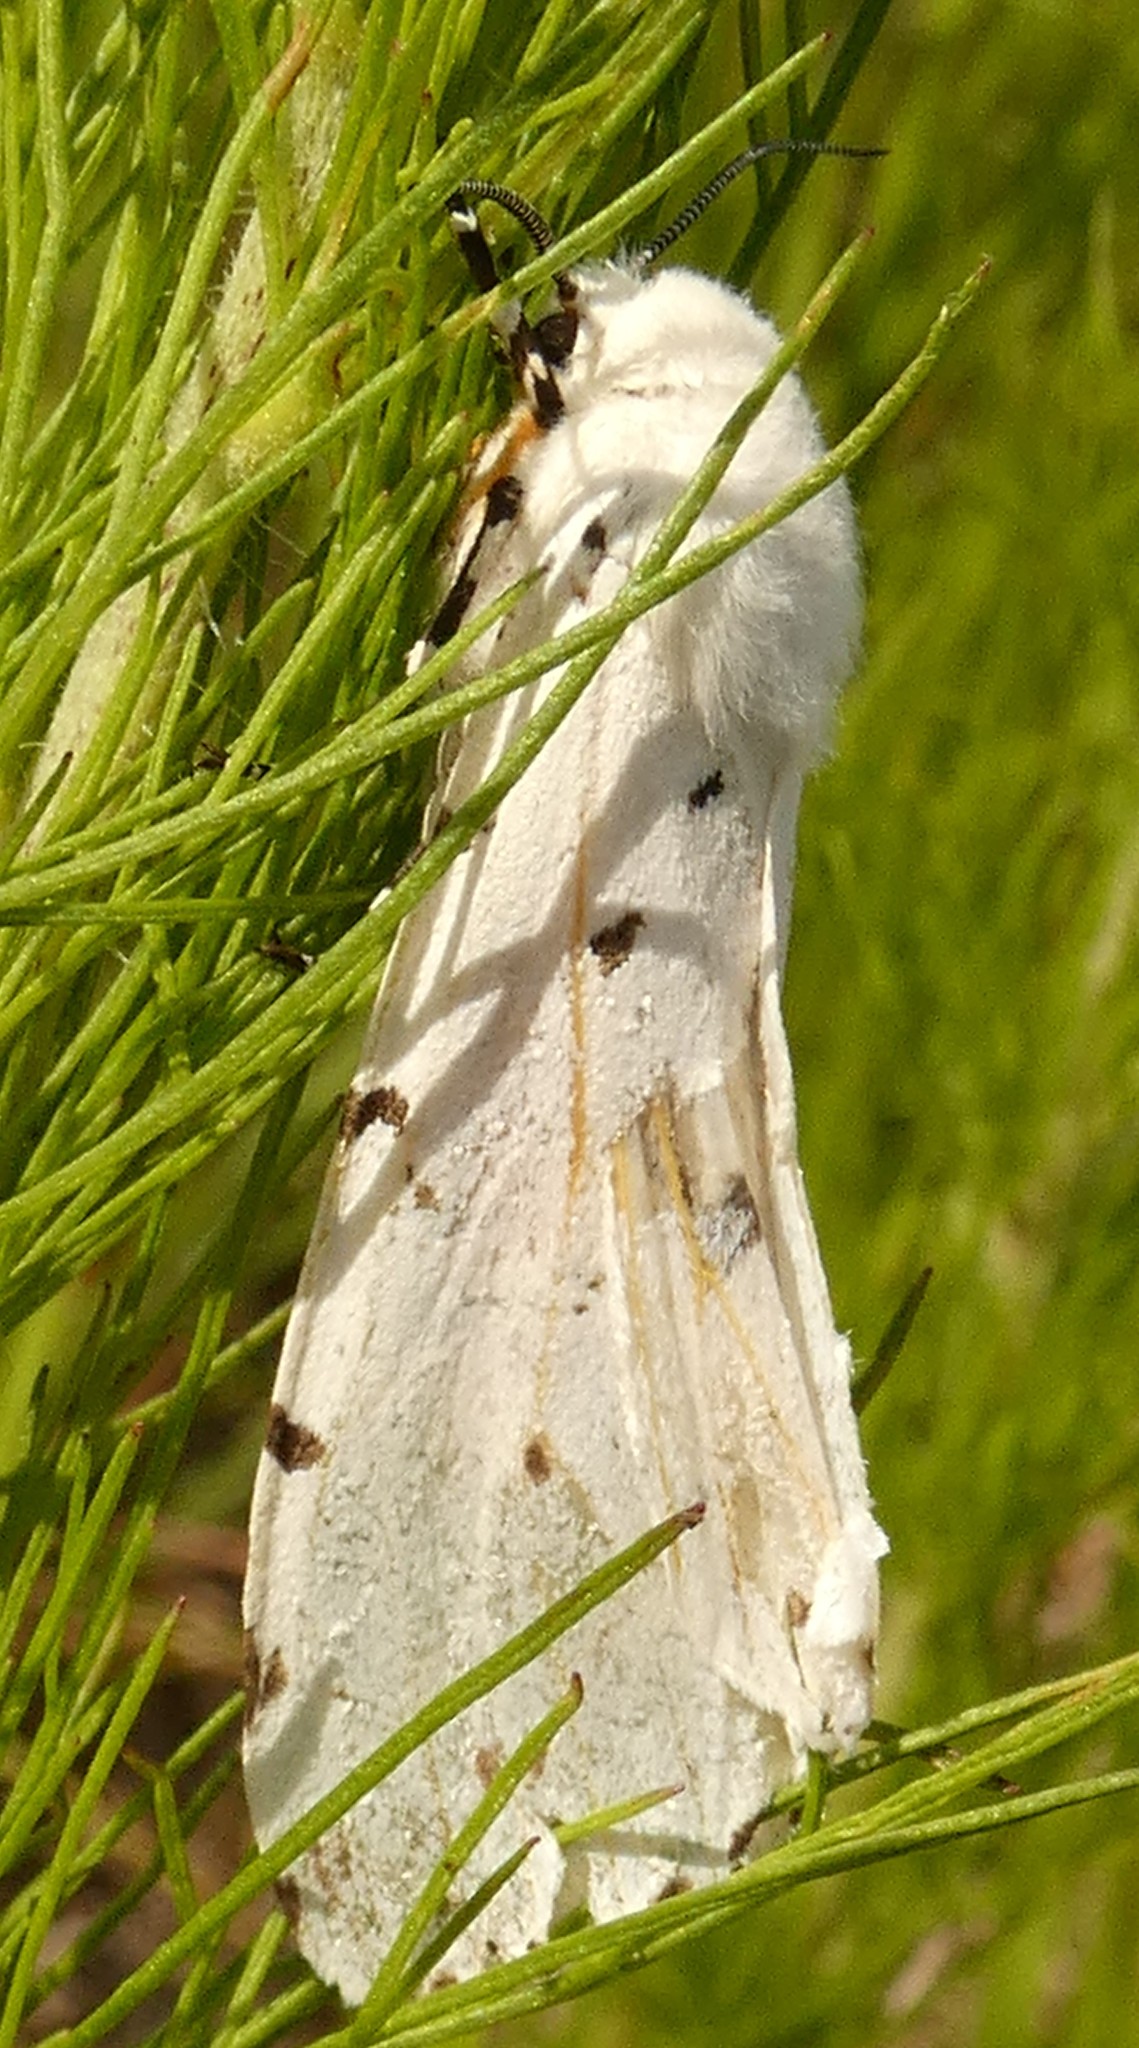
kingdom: Animalia
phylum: Arthropoda
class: Insecta
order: Lepidoptera
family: Erebidae
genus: Estigmene
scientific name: Estigmene acrea
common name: Salt marsh moth
